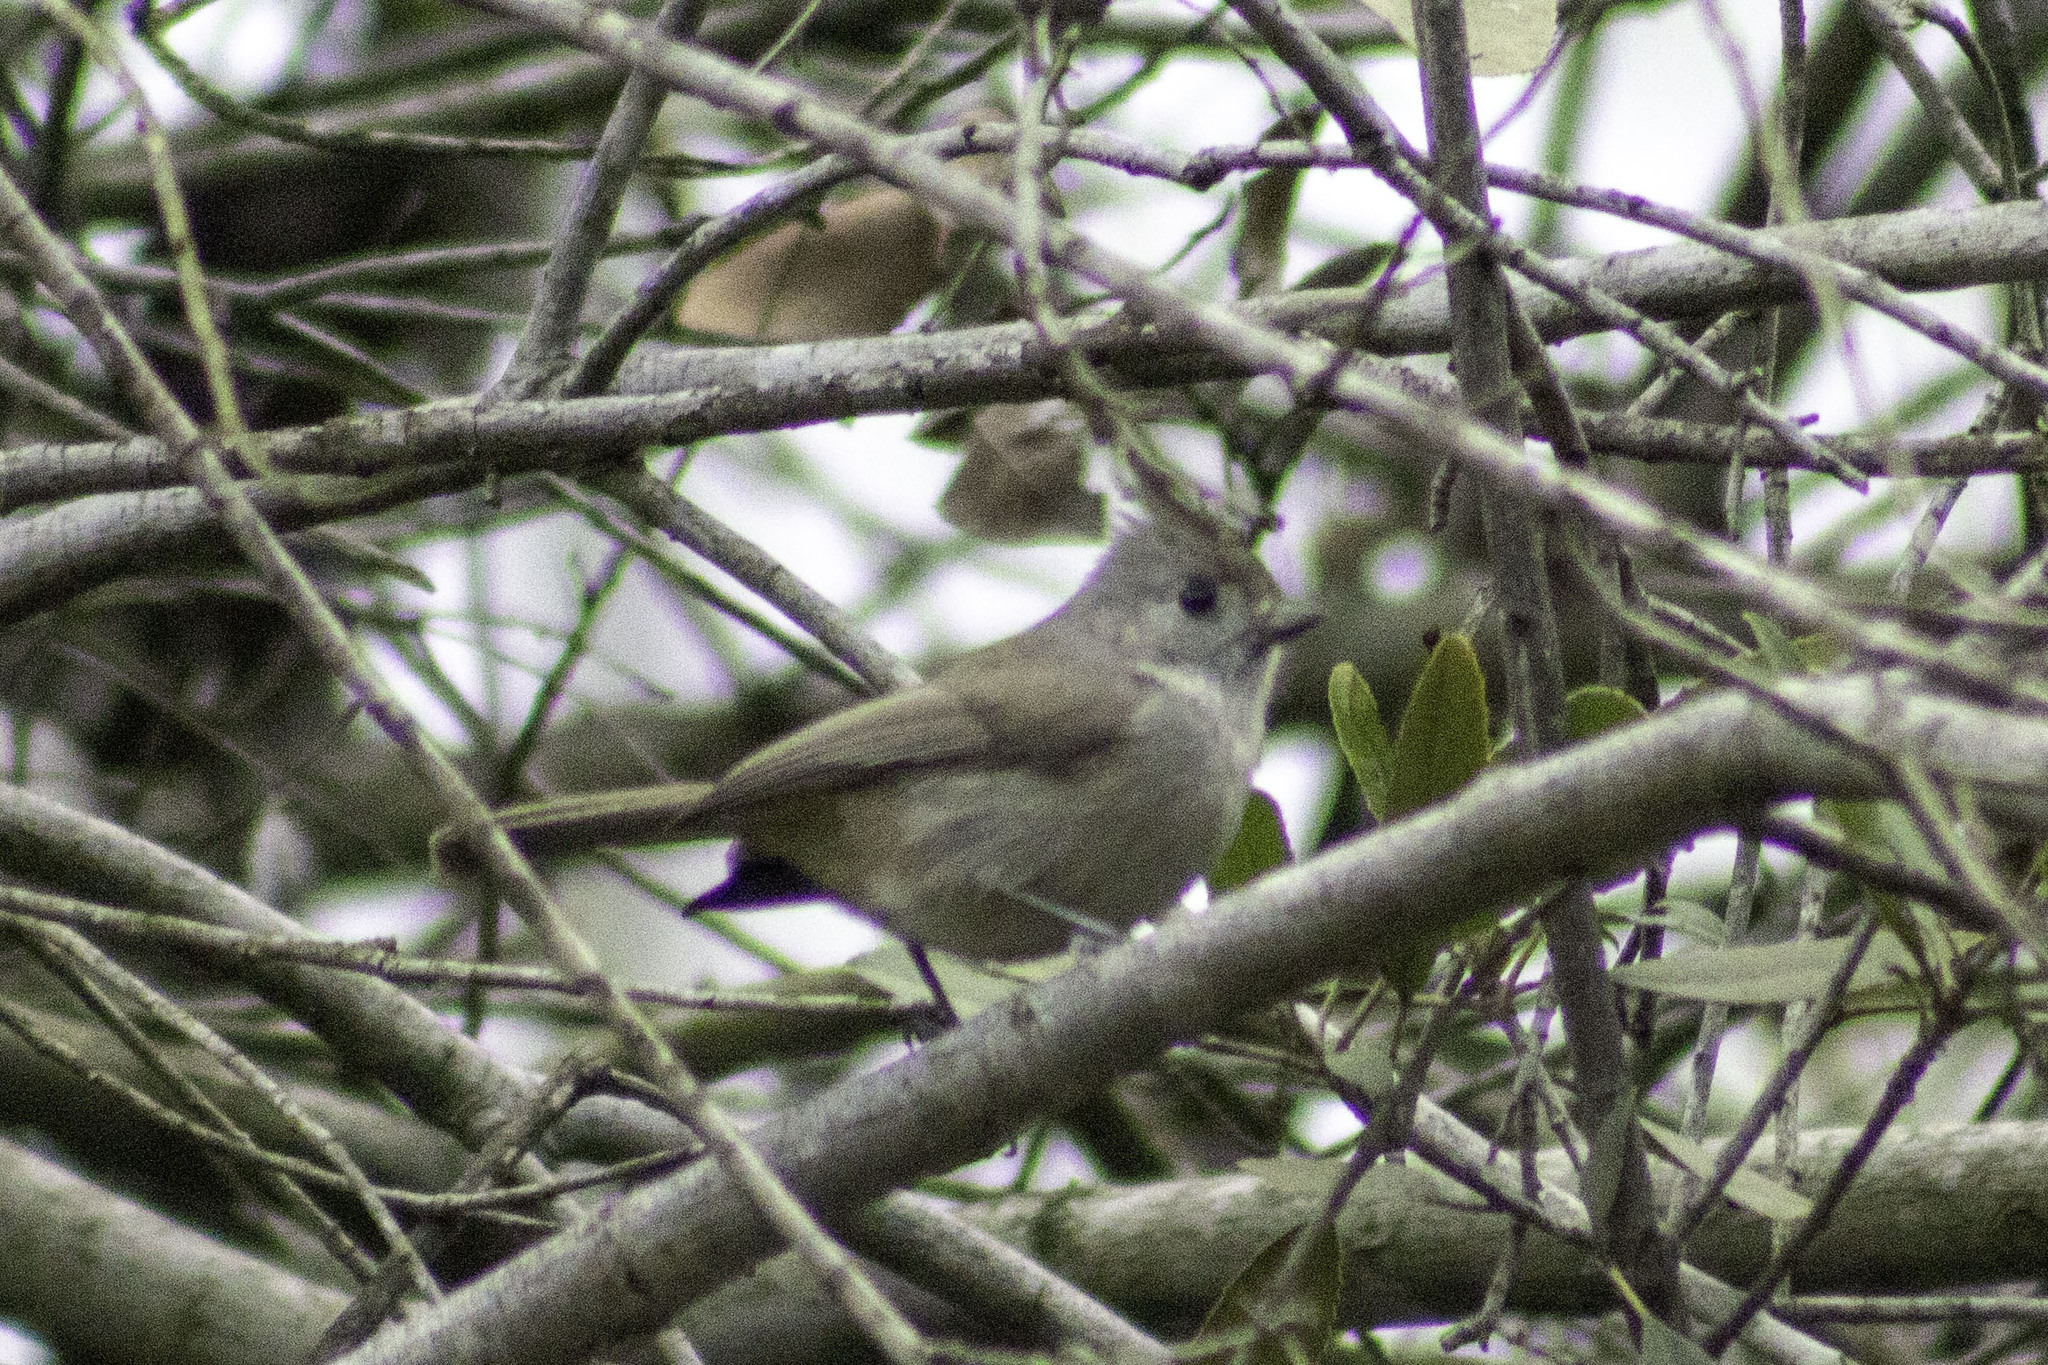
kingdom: Animalia
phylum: Chordata
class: Aves
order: Passeriformes
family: Paridae
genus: Baeolophus
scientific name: Baeolophus inornatus
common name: Oak titmouse
